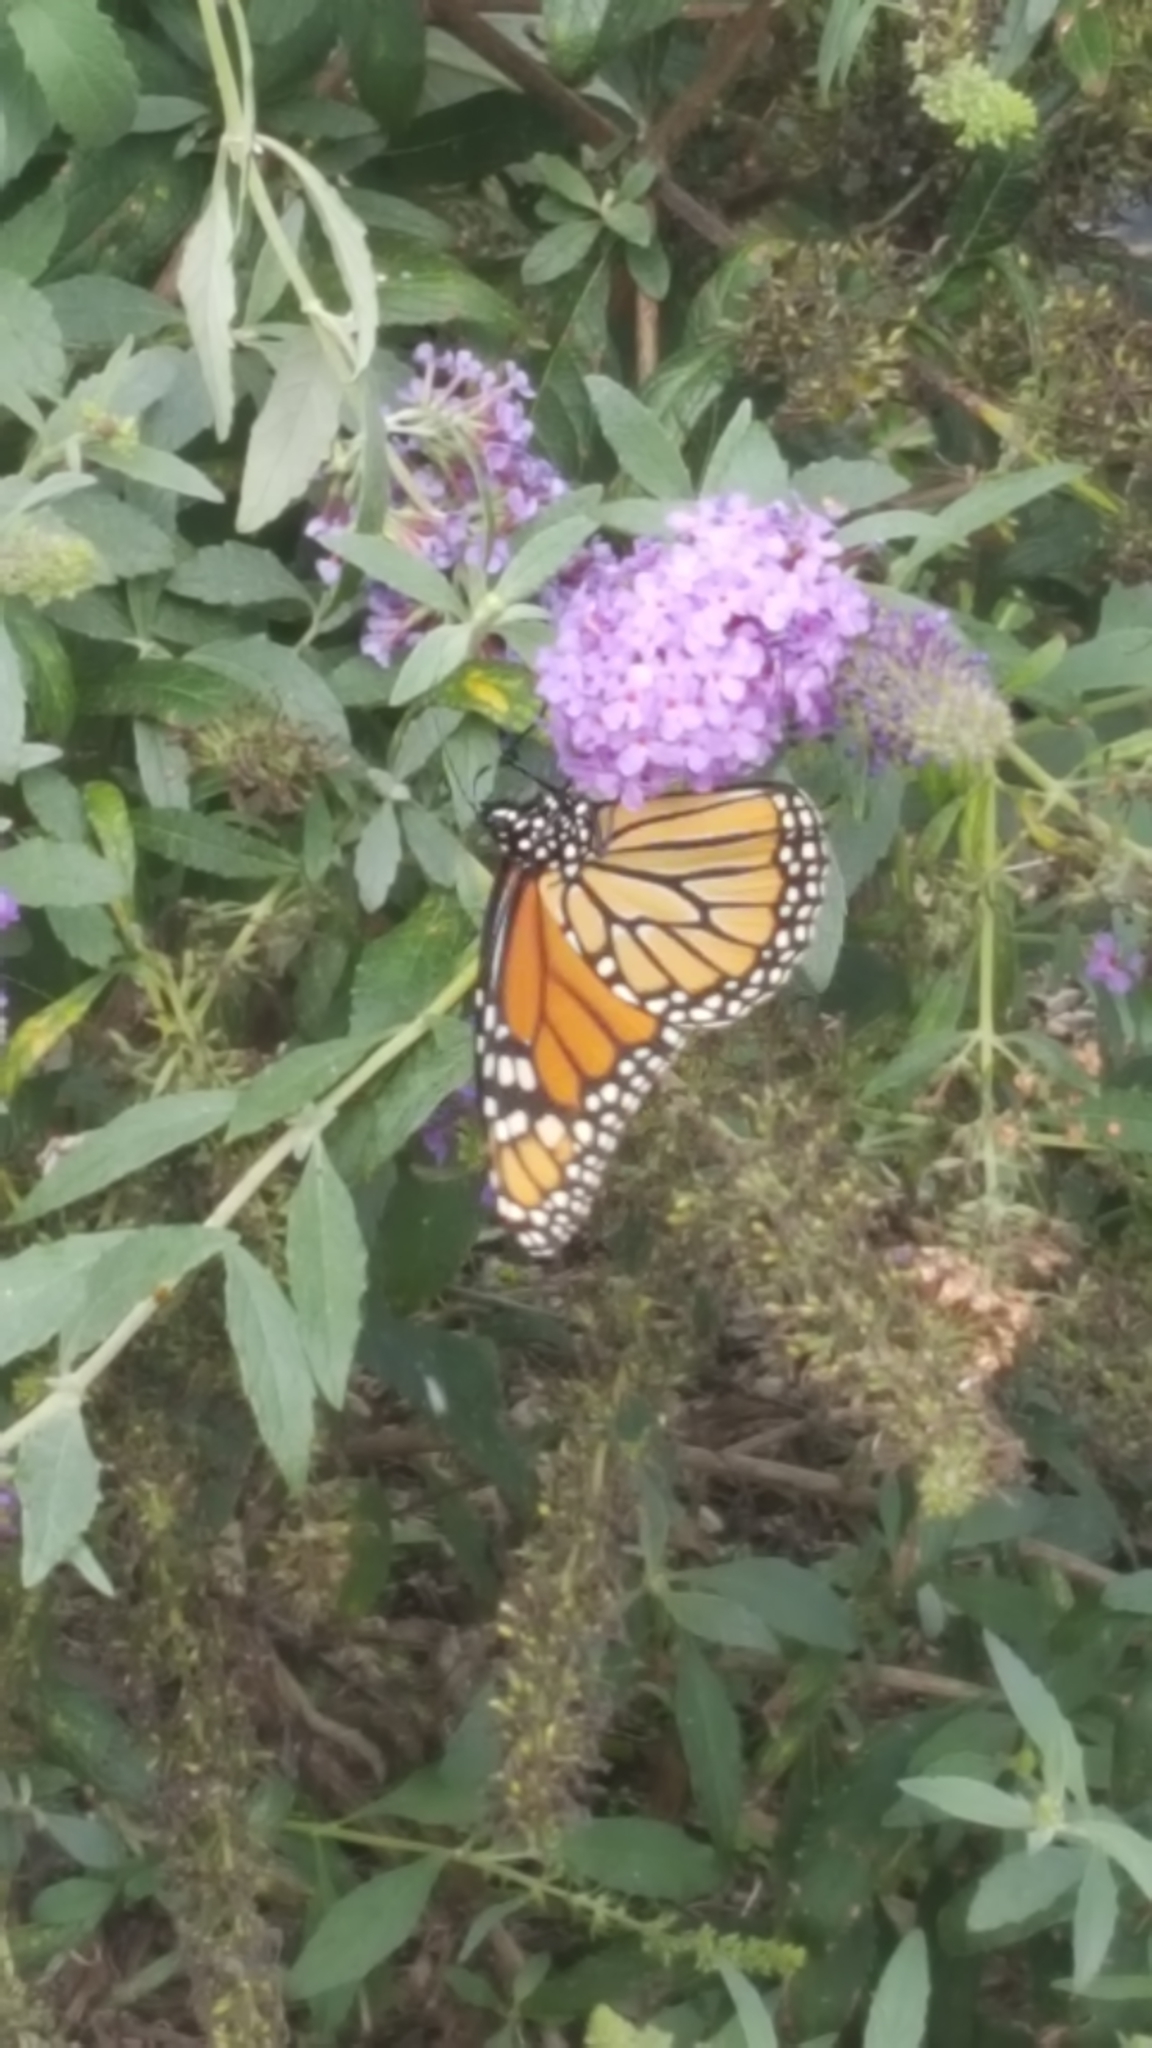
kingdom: Animalia
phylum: Arthropoda
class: Insecta
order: Lepidoptera
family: Nymphalidae
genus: Danaus
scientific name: Danaus plexippus
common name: Monarch
